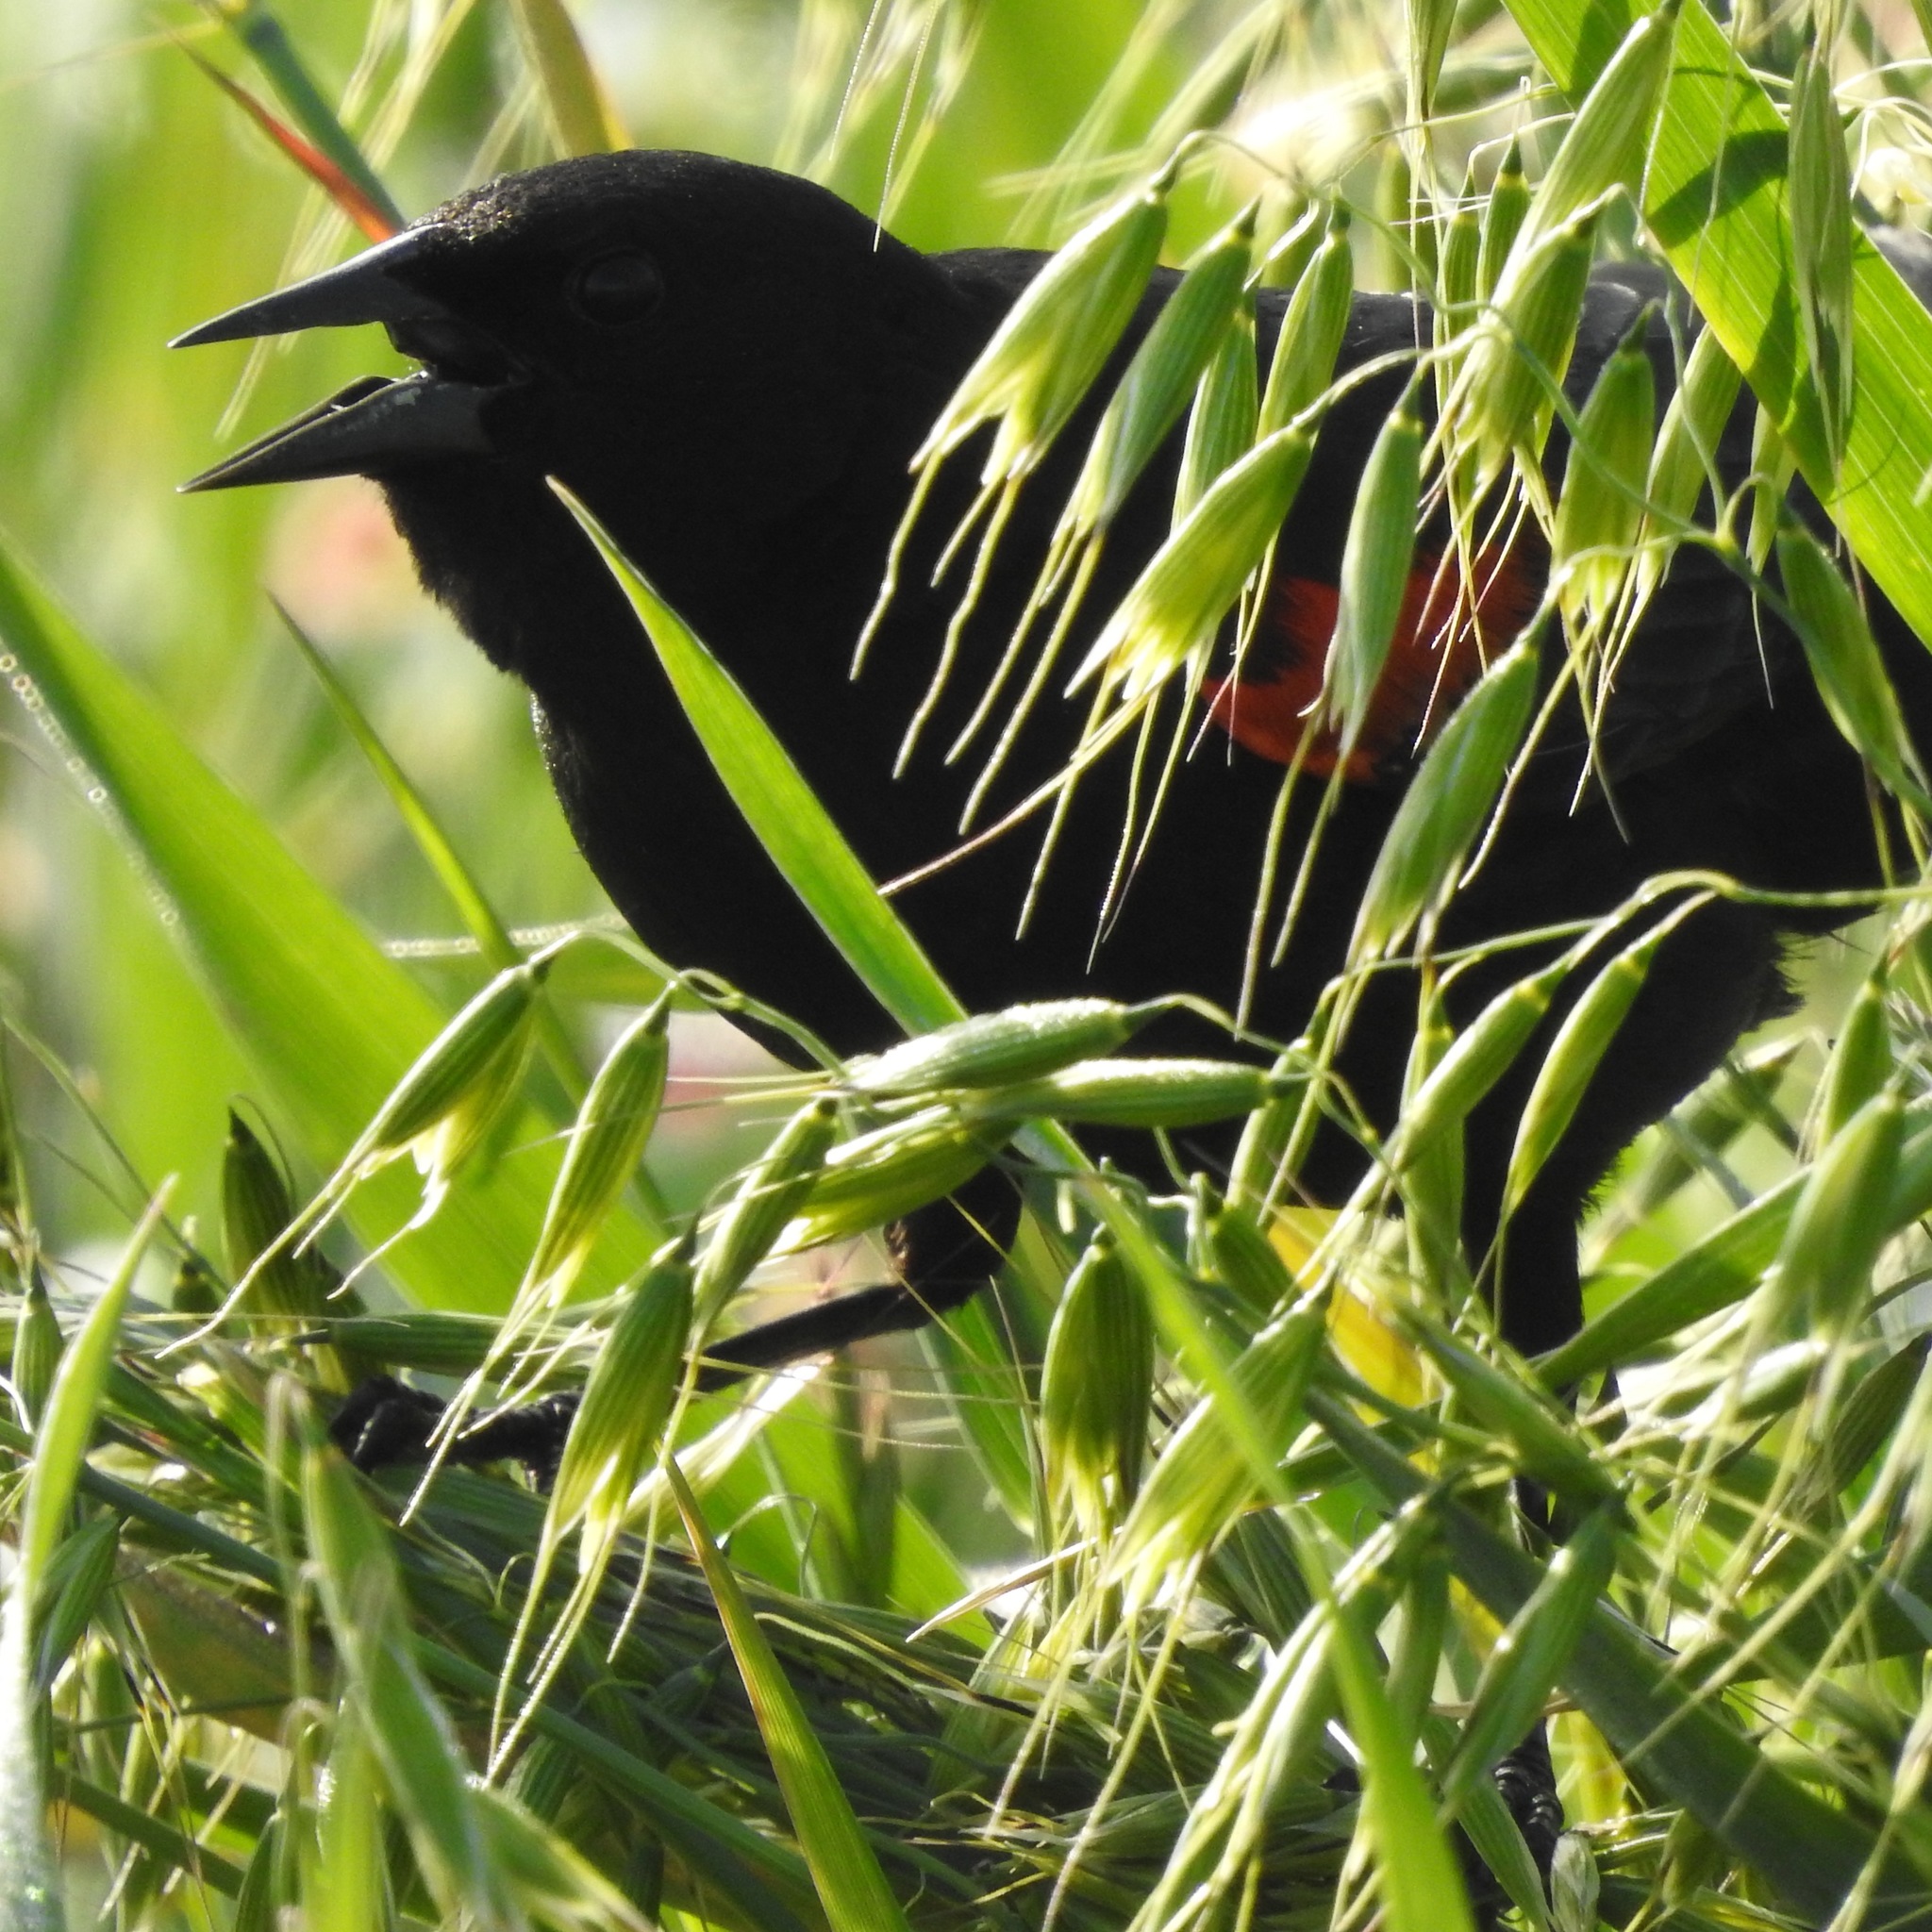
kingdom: Animalia
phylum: Chordata
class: Aves
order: Passeriformes
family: Icteridae
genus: Agelaius
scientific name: Agelaius phoeniceus
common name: Red-winged blackbird
